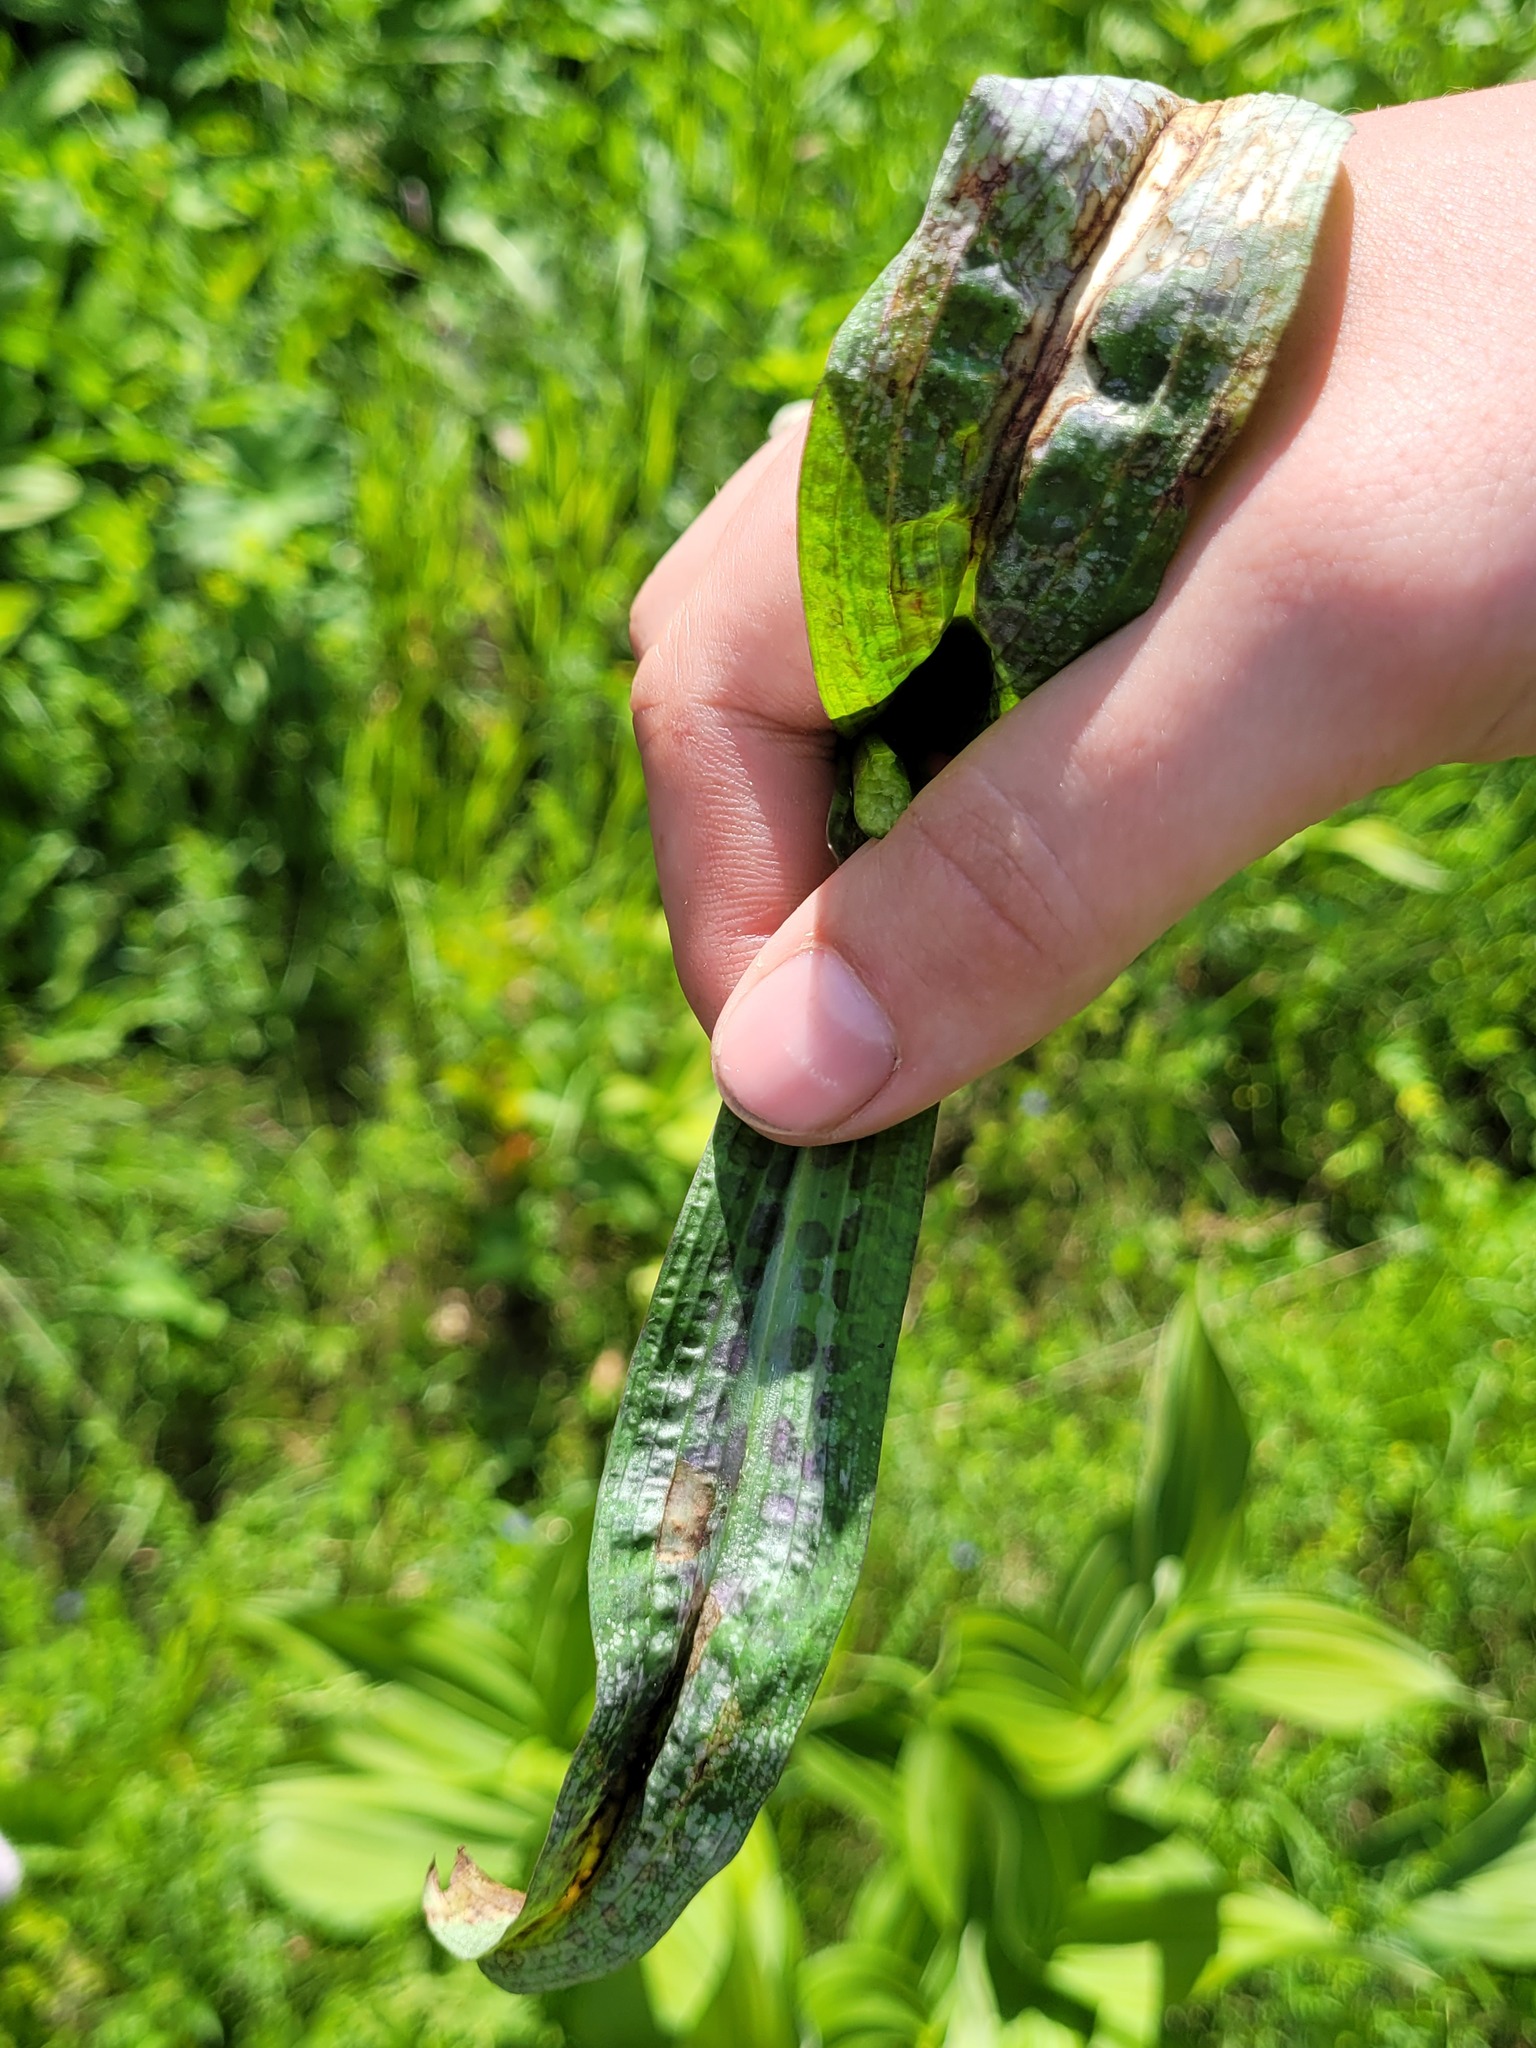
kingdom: Plantae
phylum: Tracheophyta
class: Liliopsida
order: Asparagales
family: Orchidaceae
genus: Dactylorhiza
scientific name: Dactylorhiza majalis
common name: Marsh orchid
